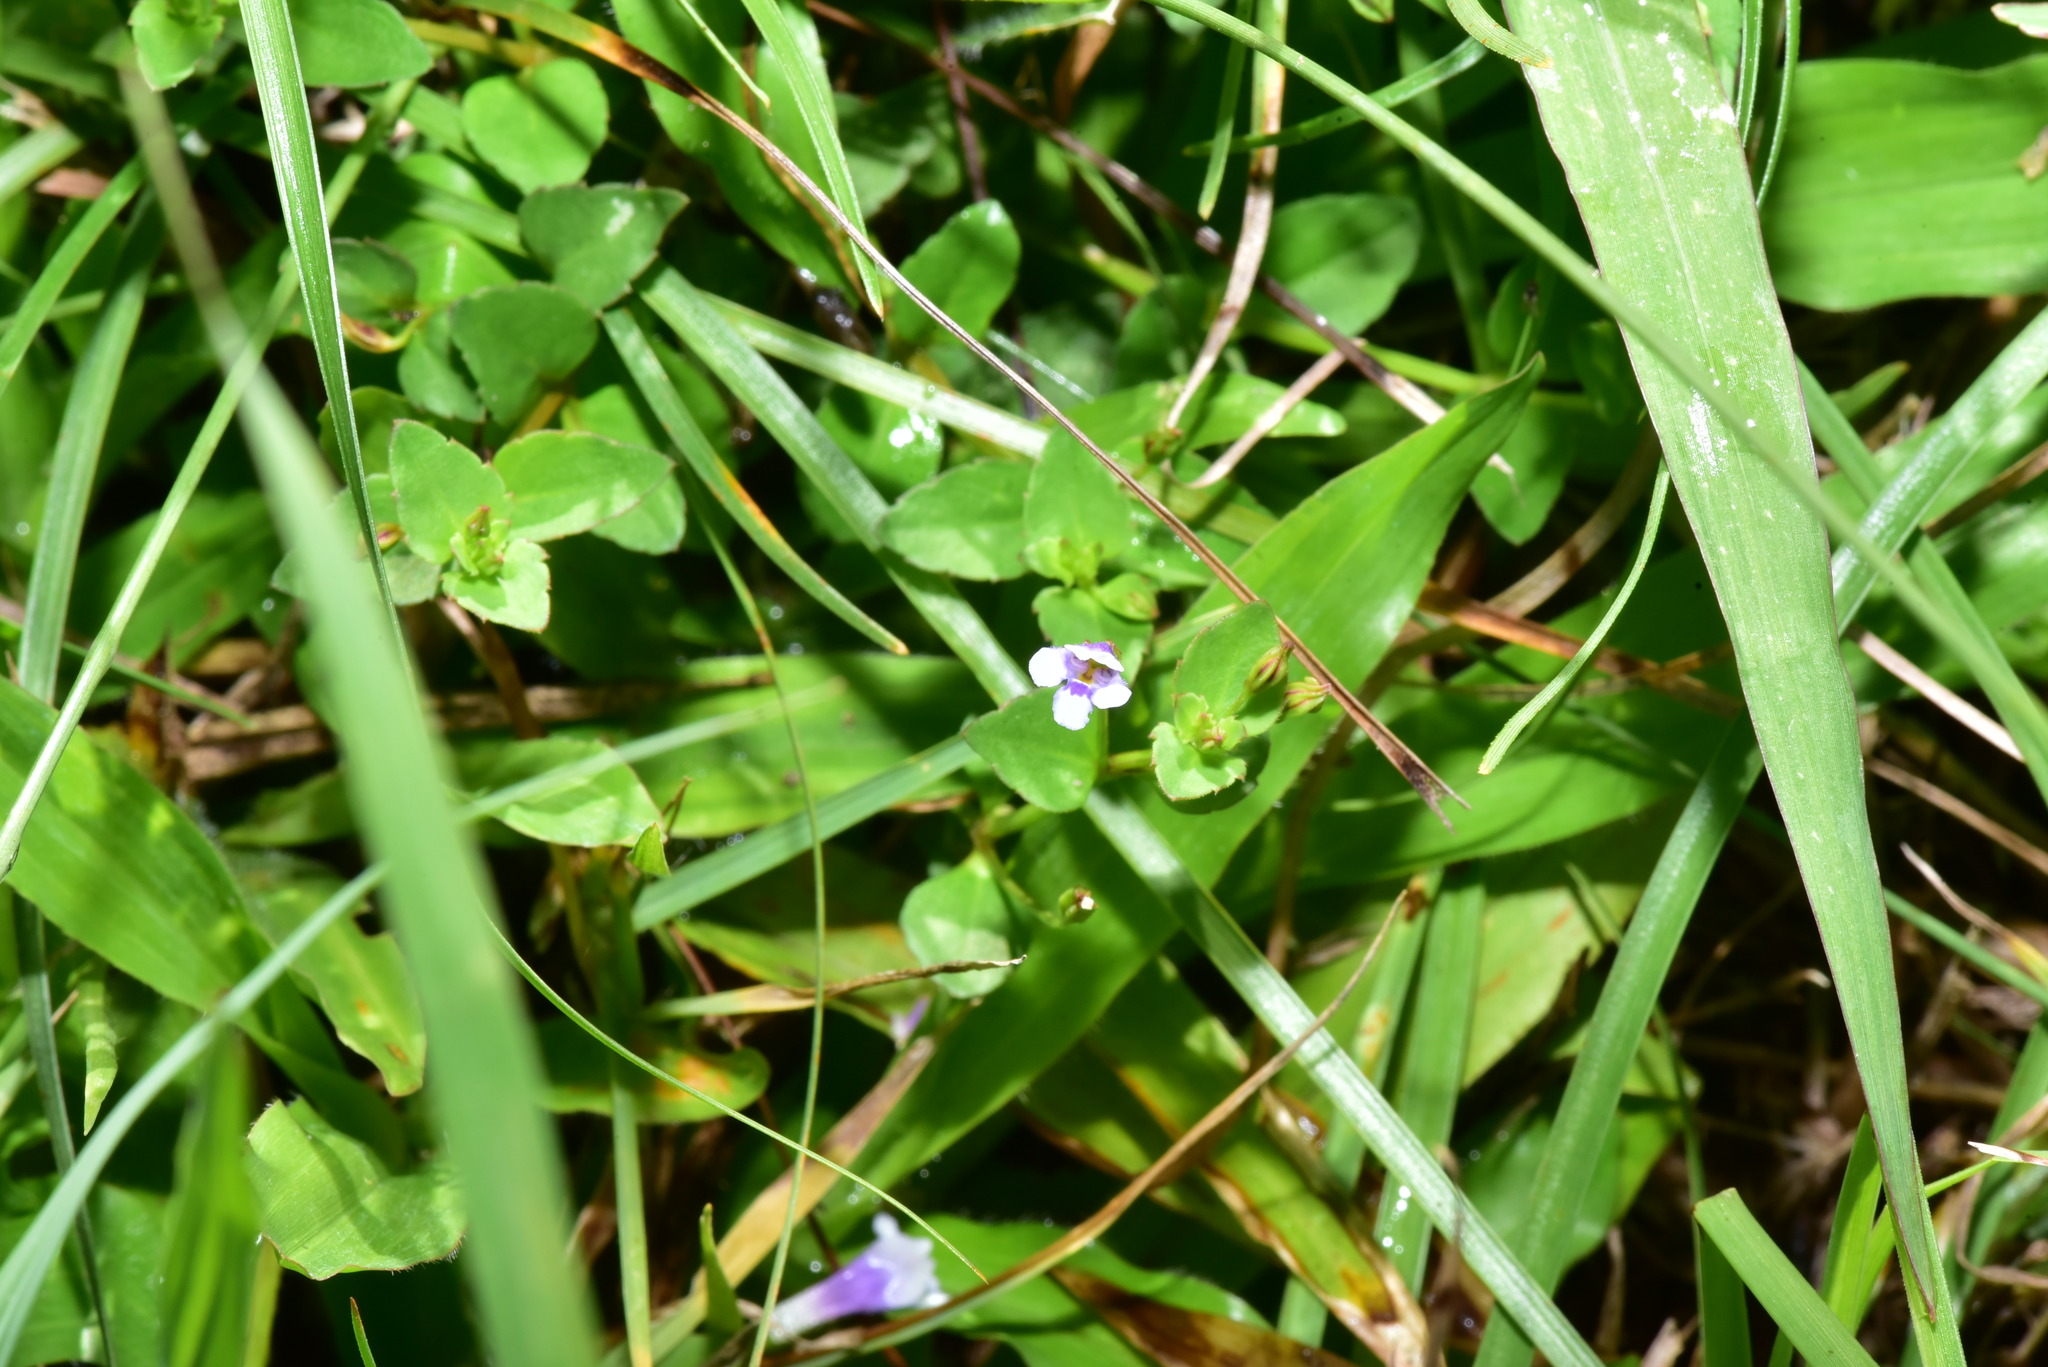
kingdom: Plantae
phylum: Tracheophyta
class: Magnoliopsida
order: Lamiales
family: Linderniaceae
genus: Torenia
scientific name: Torenia crustacea
